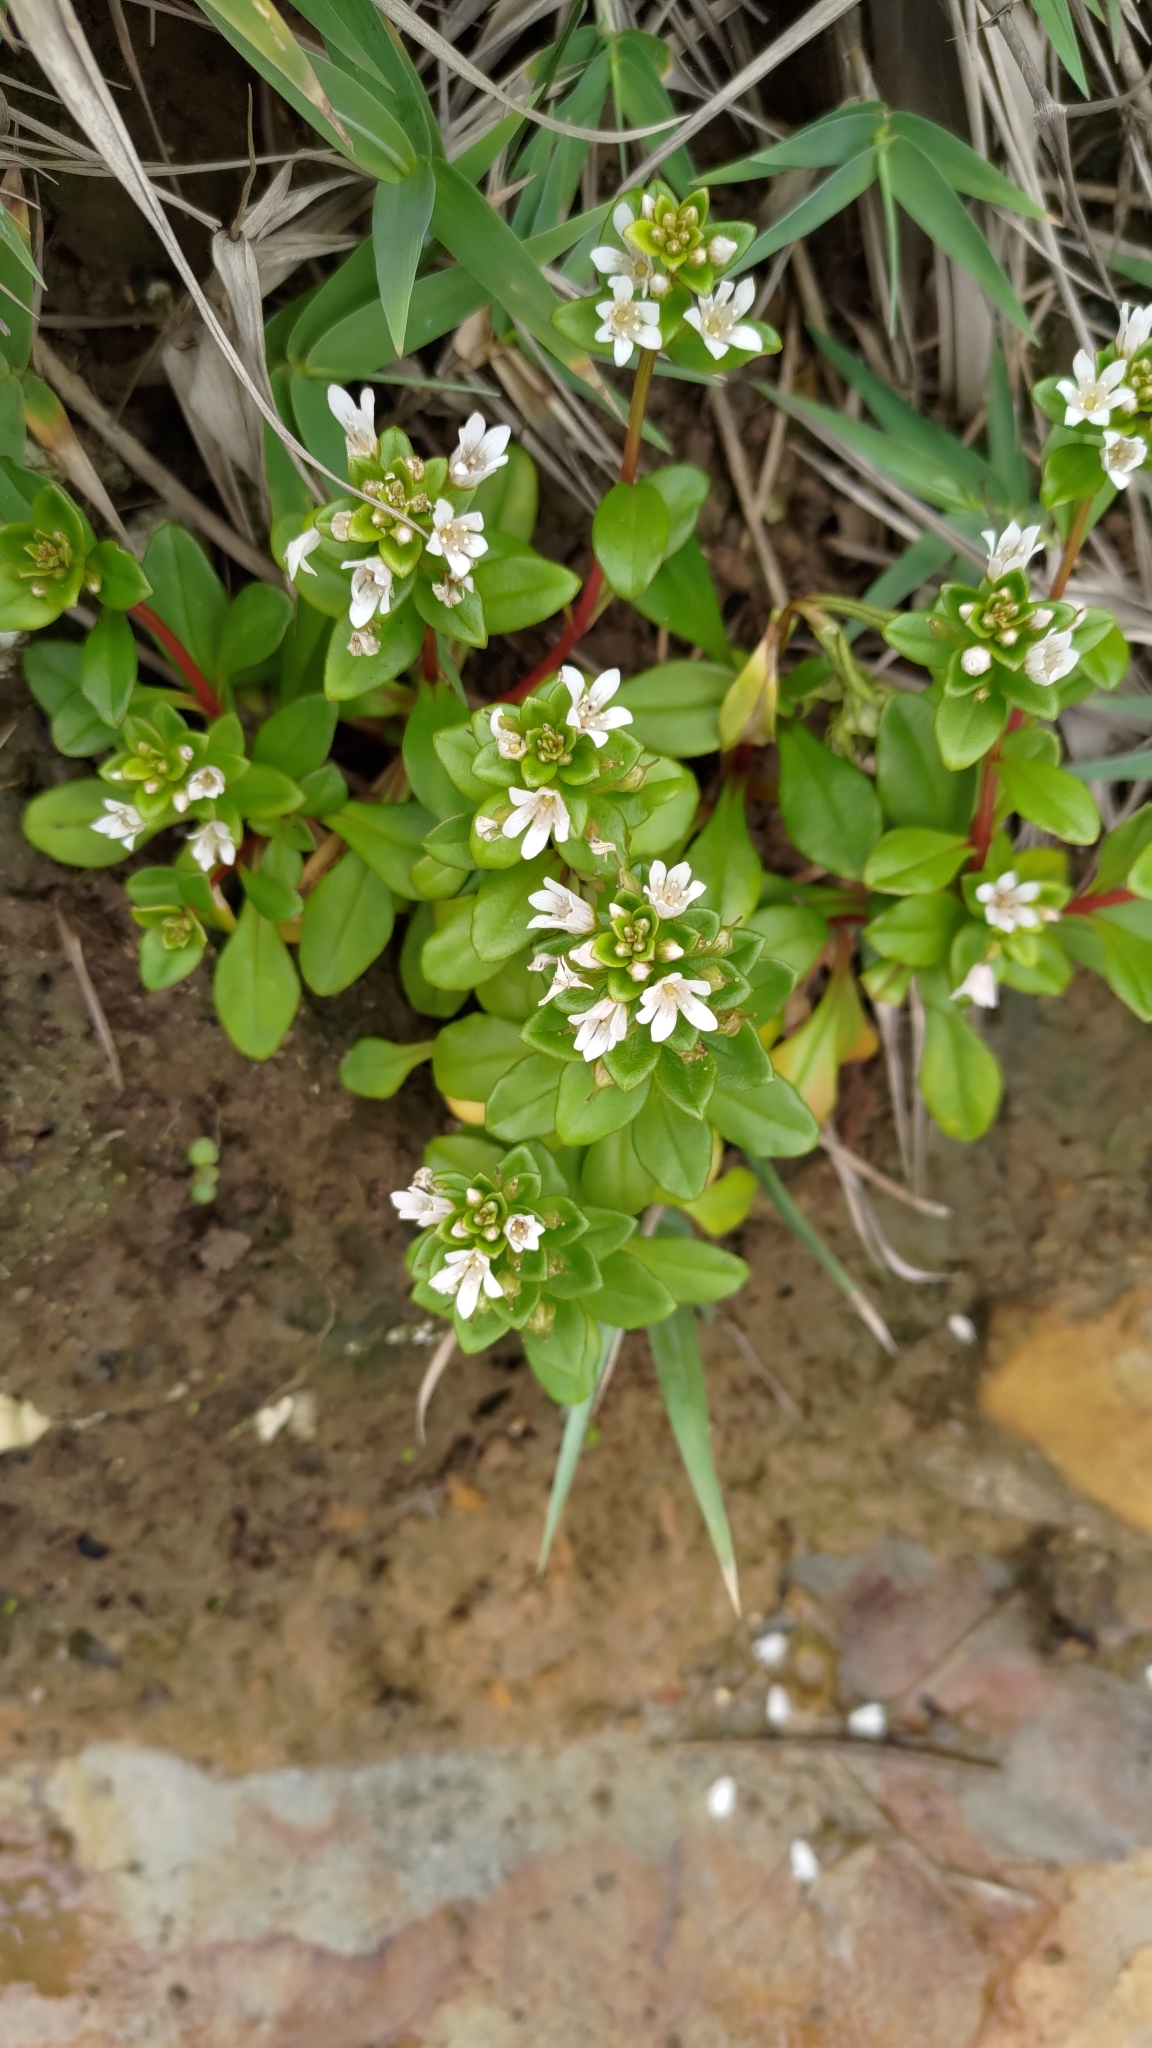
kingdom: Plantae
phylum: Tracheophyta
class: Magnoliopsida
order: Ericales
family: Primulaceae
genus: Lysimachia
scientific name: Lysimachia mauritiana
